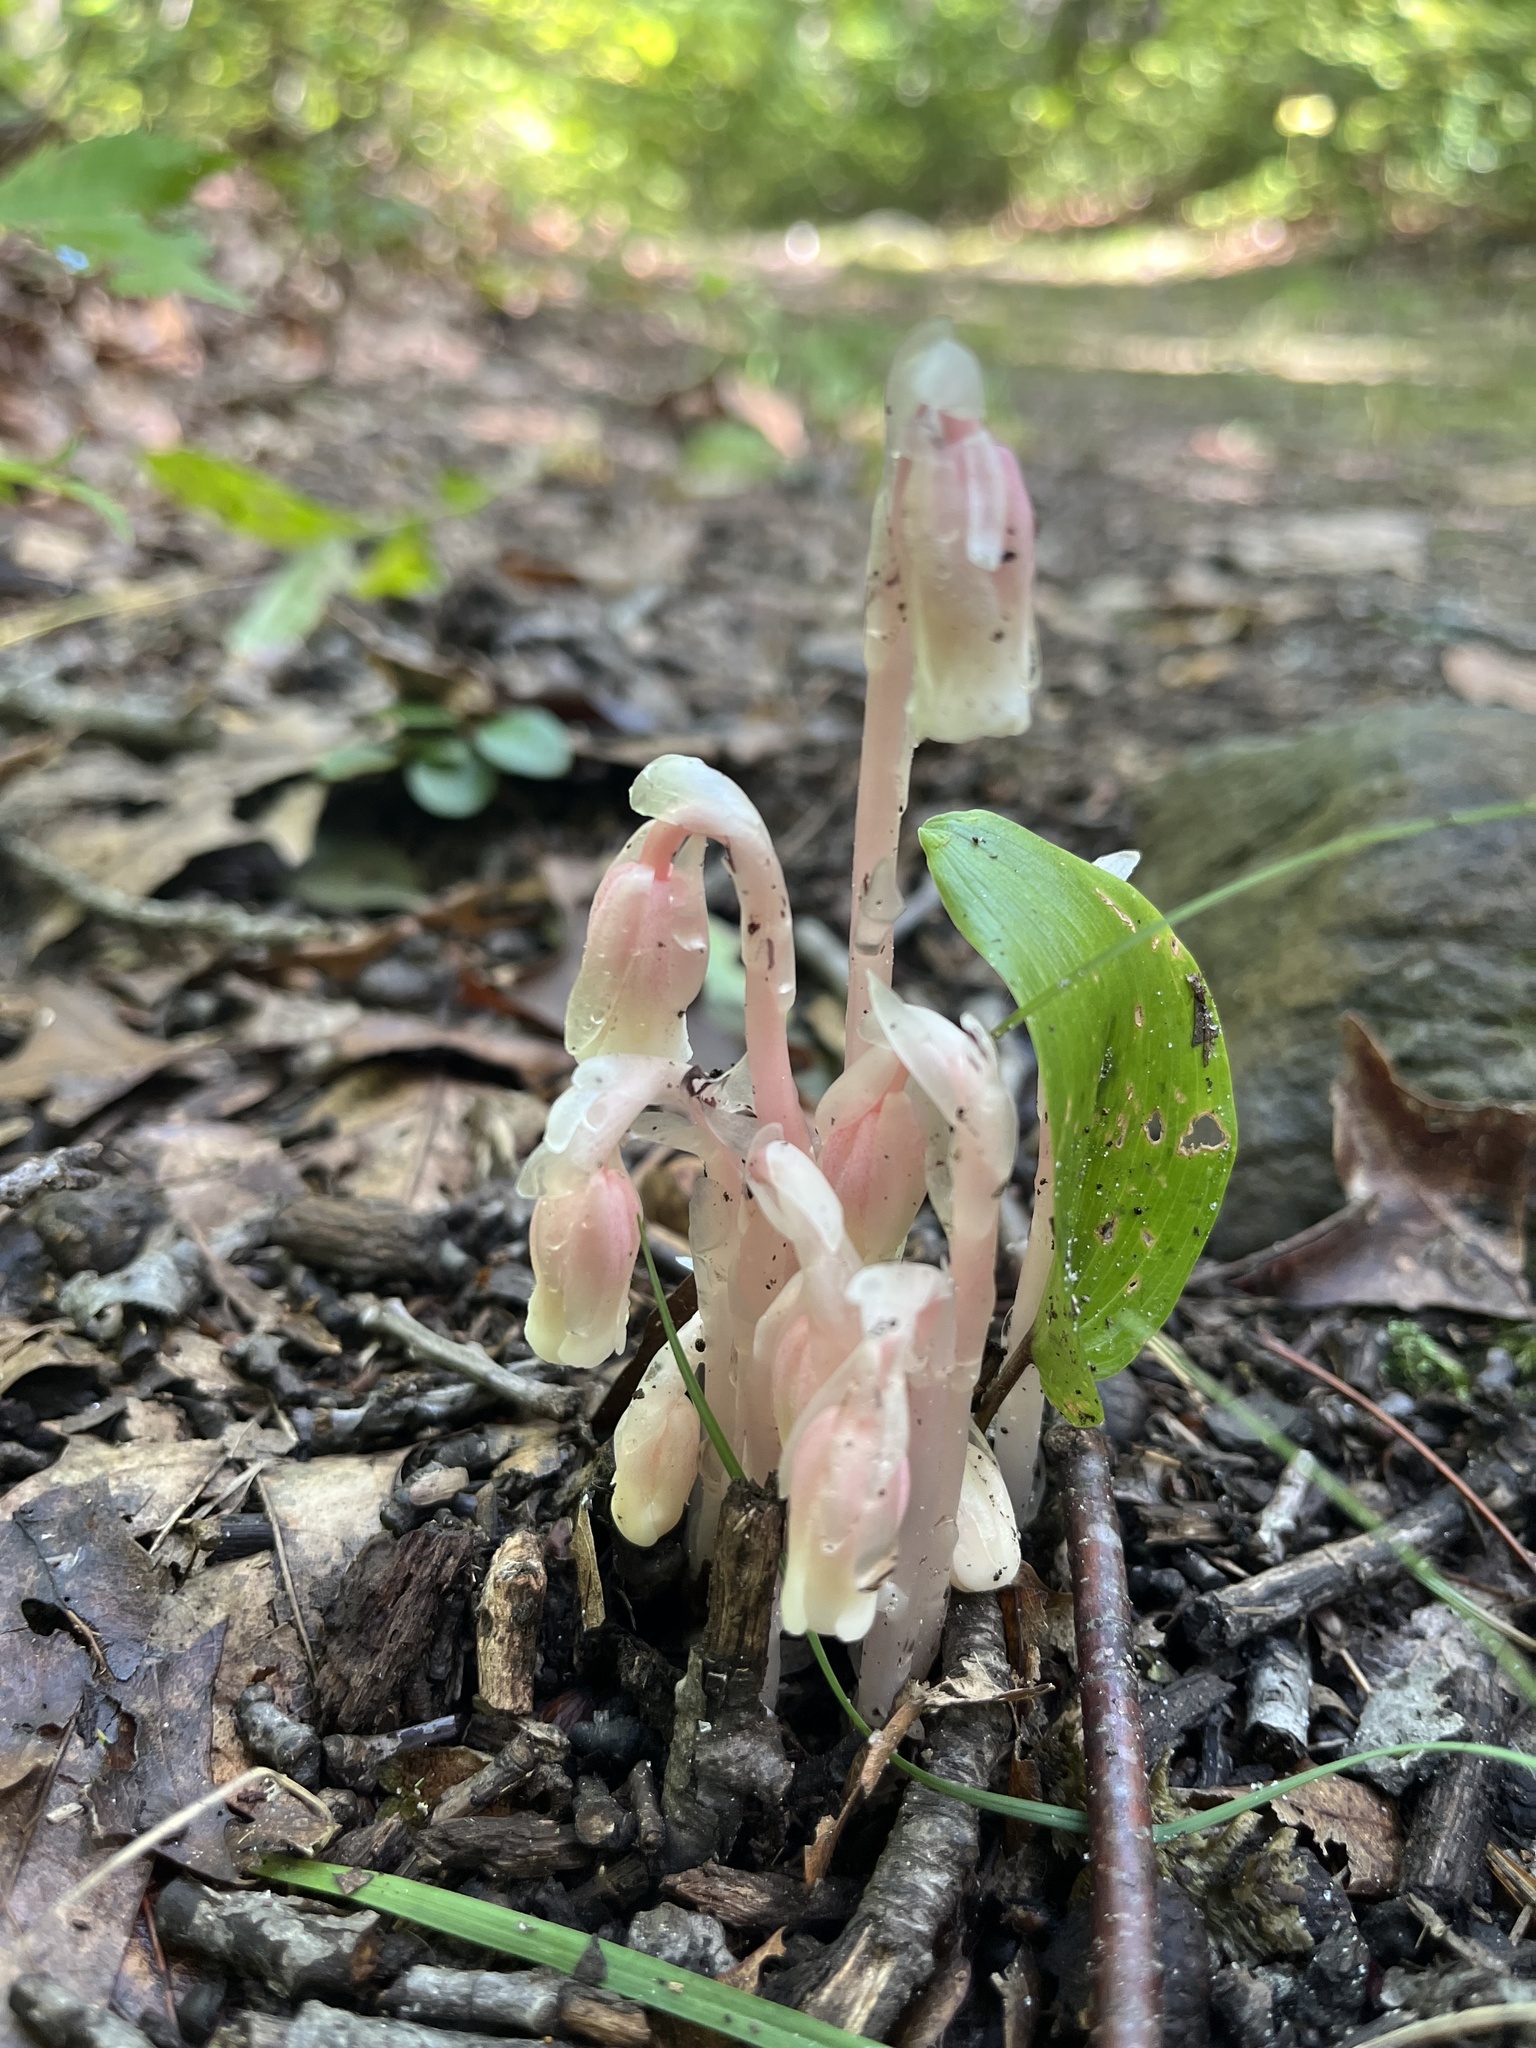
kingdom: Plantae
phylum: Tracheophyta
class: Magnoliopsida
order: Ericales
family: Ericaceae
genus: Monotropa
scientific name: Monotropa uniflora
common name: Convulsion root
